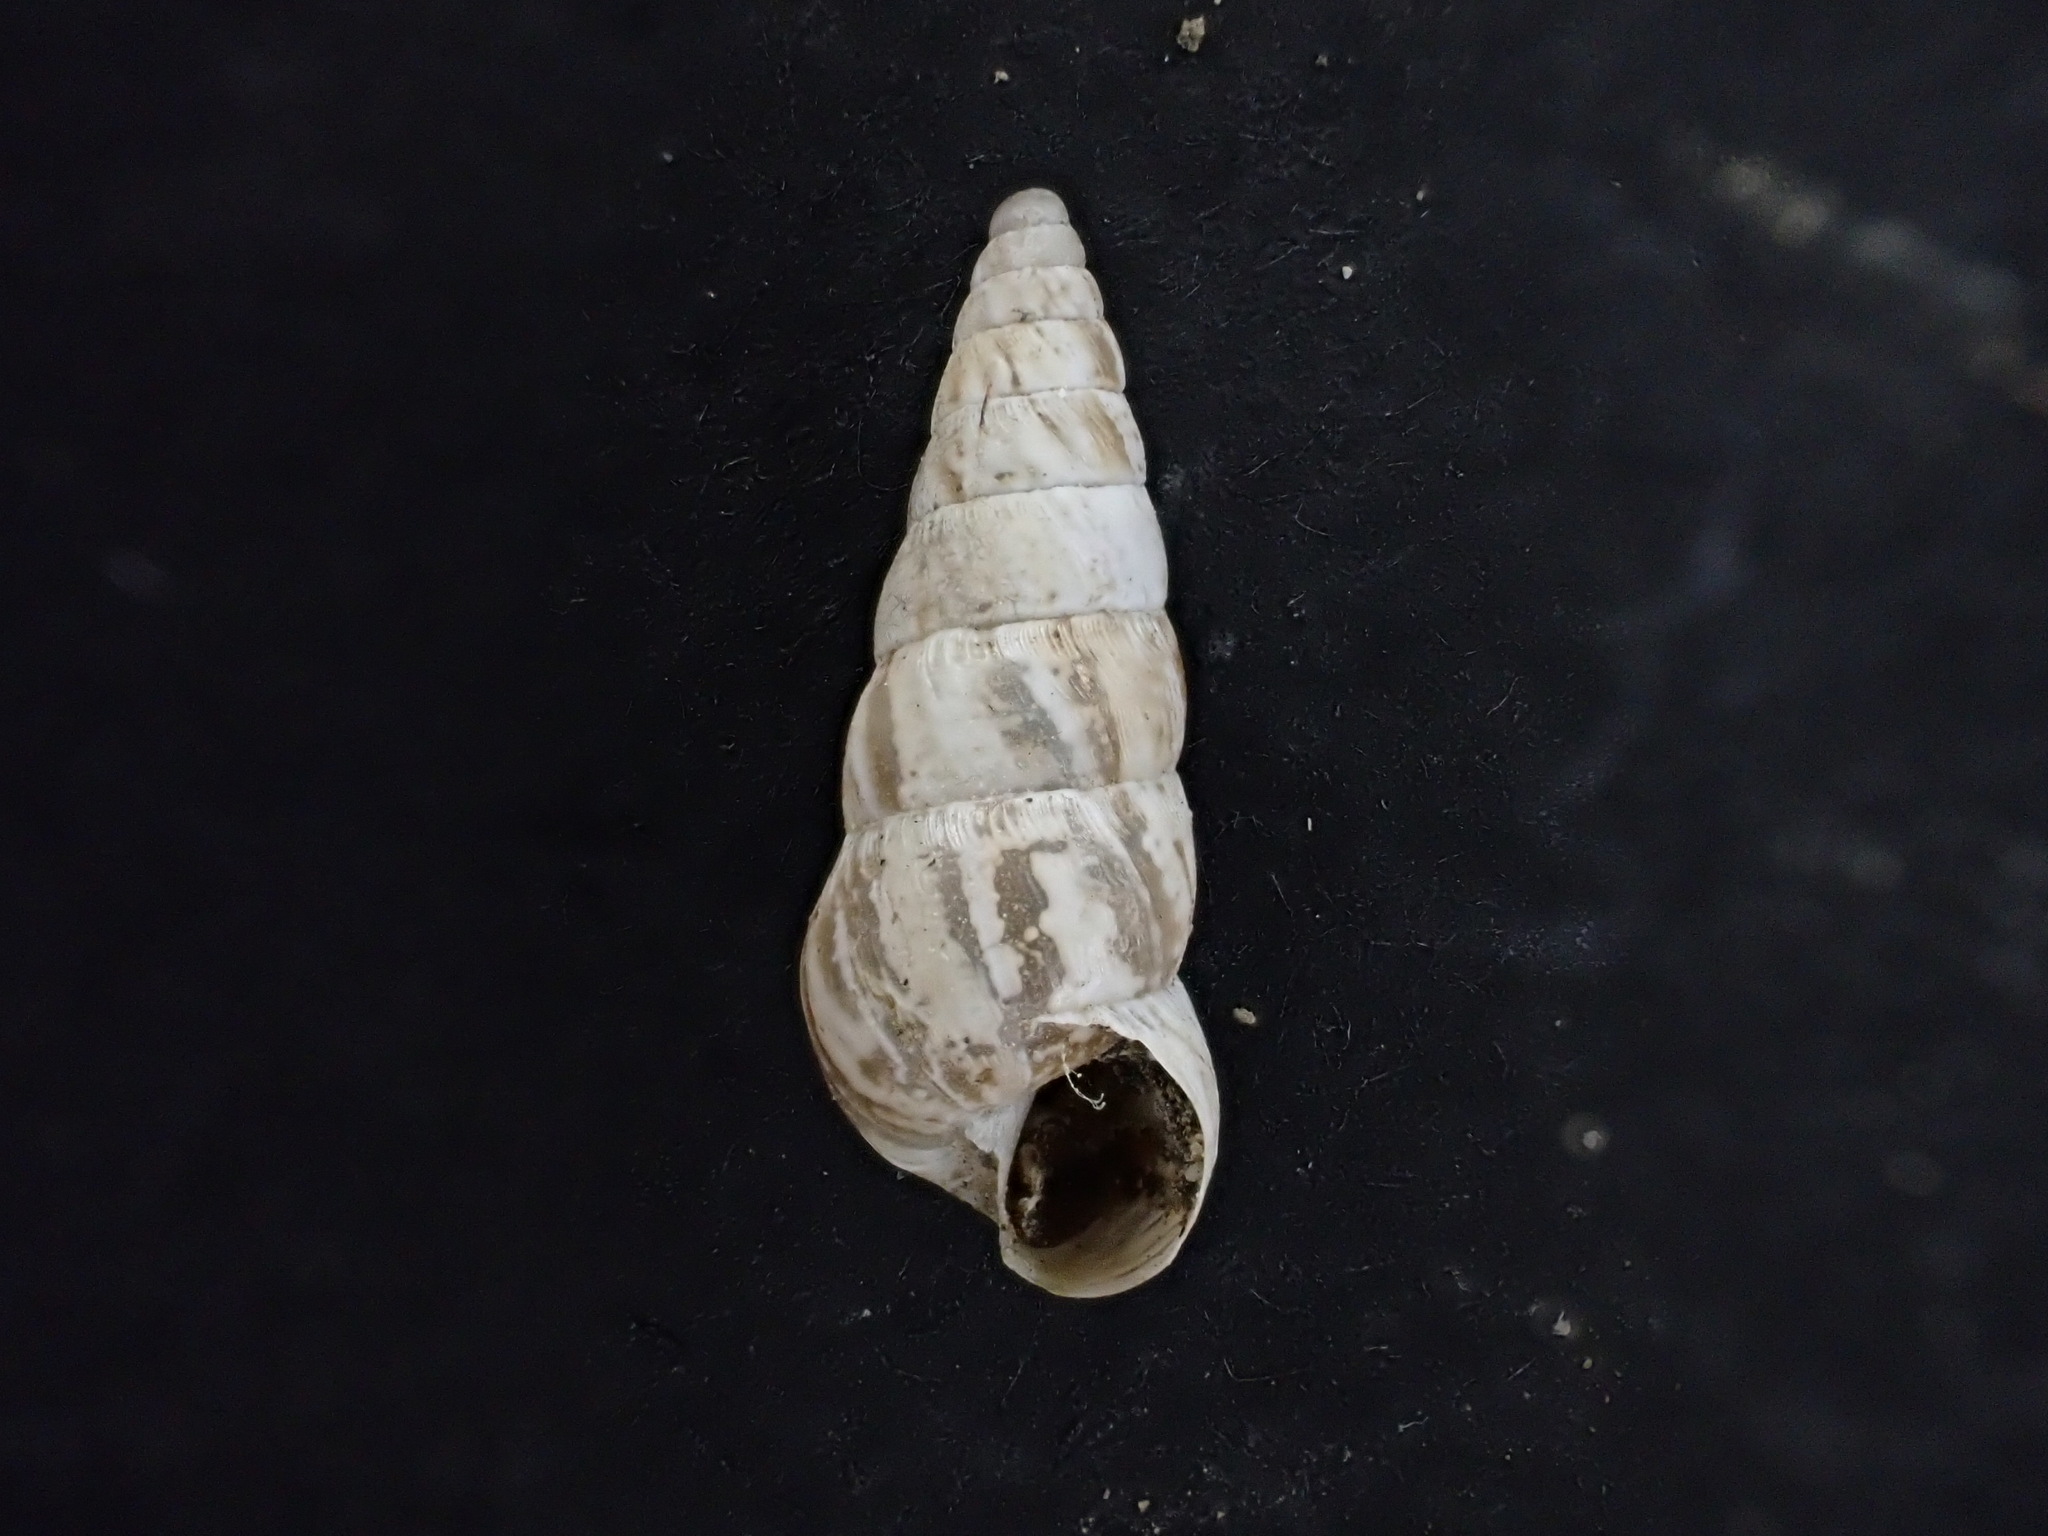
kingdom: Animalia
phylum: Mollusca
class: Gastropoda
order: Stylommatophora
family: Geomitridae
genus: Cochlicella
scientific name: Cochlicella acuta
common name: Pointed snail
